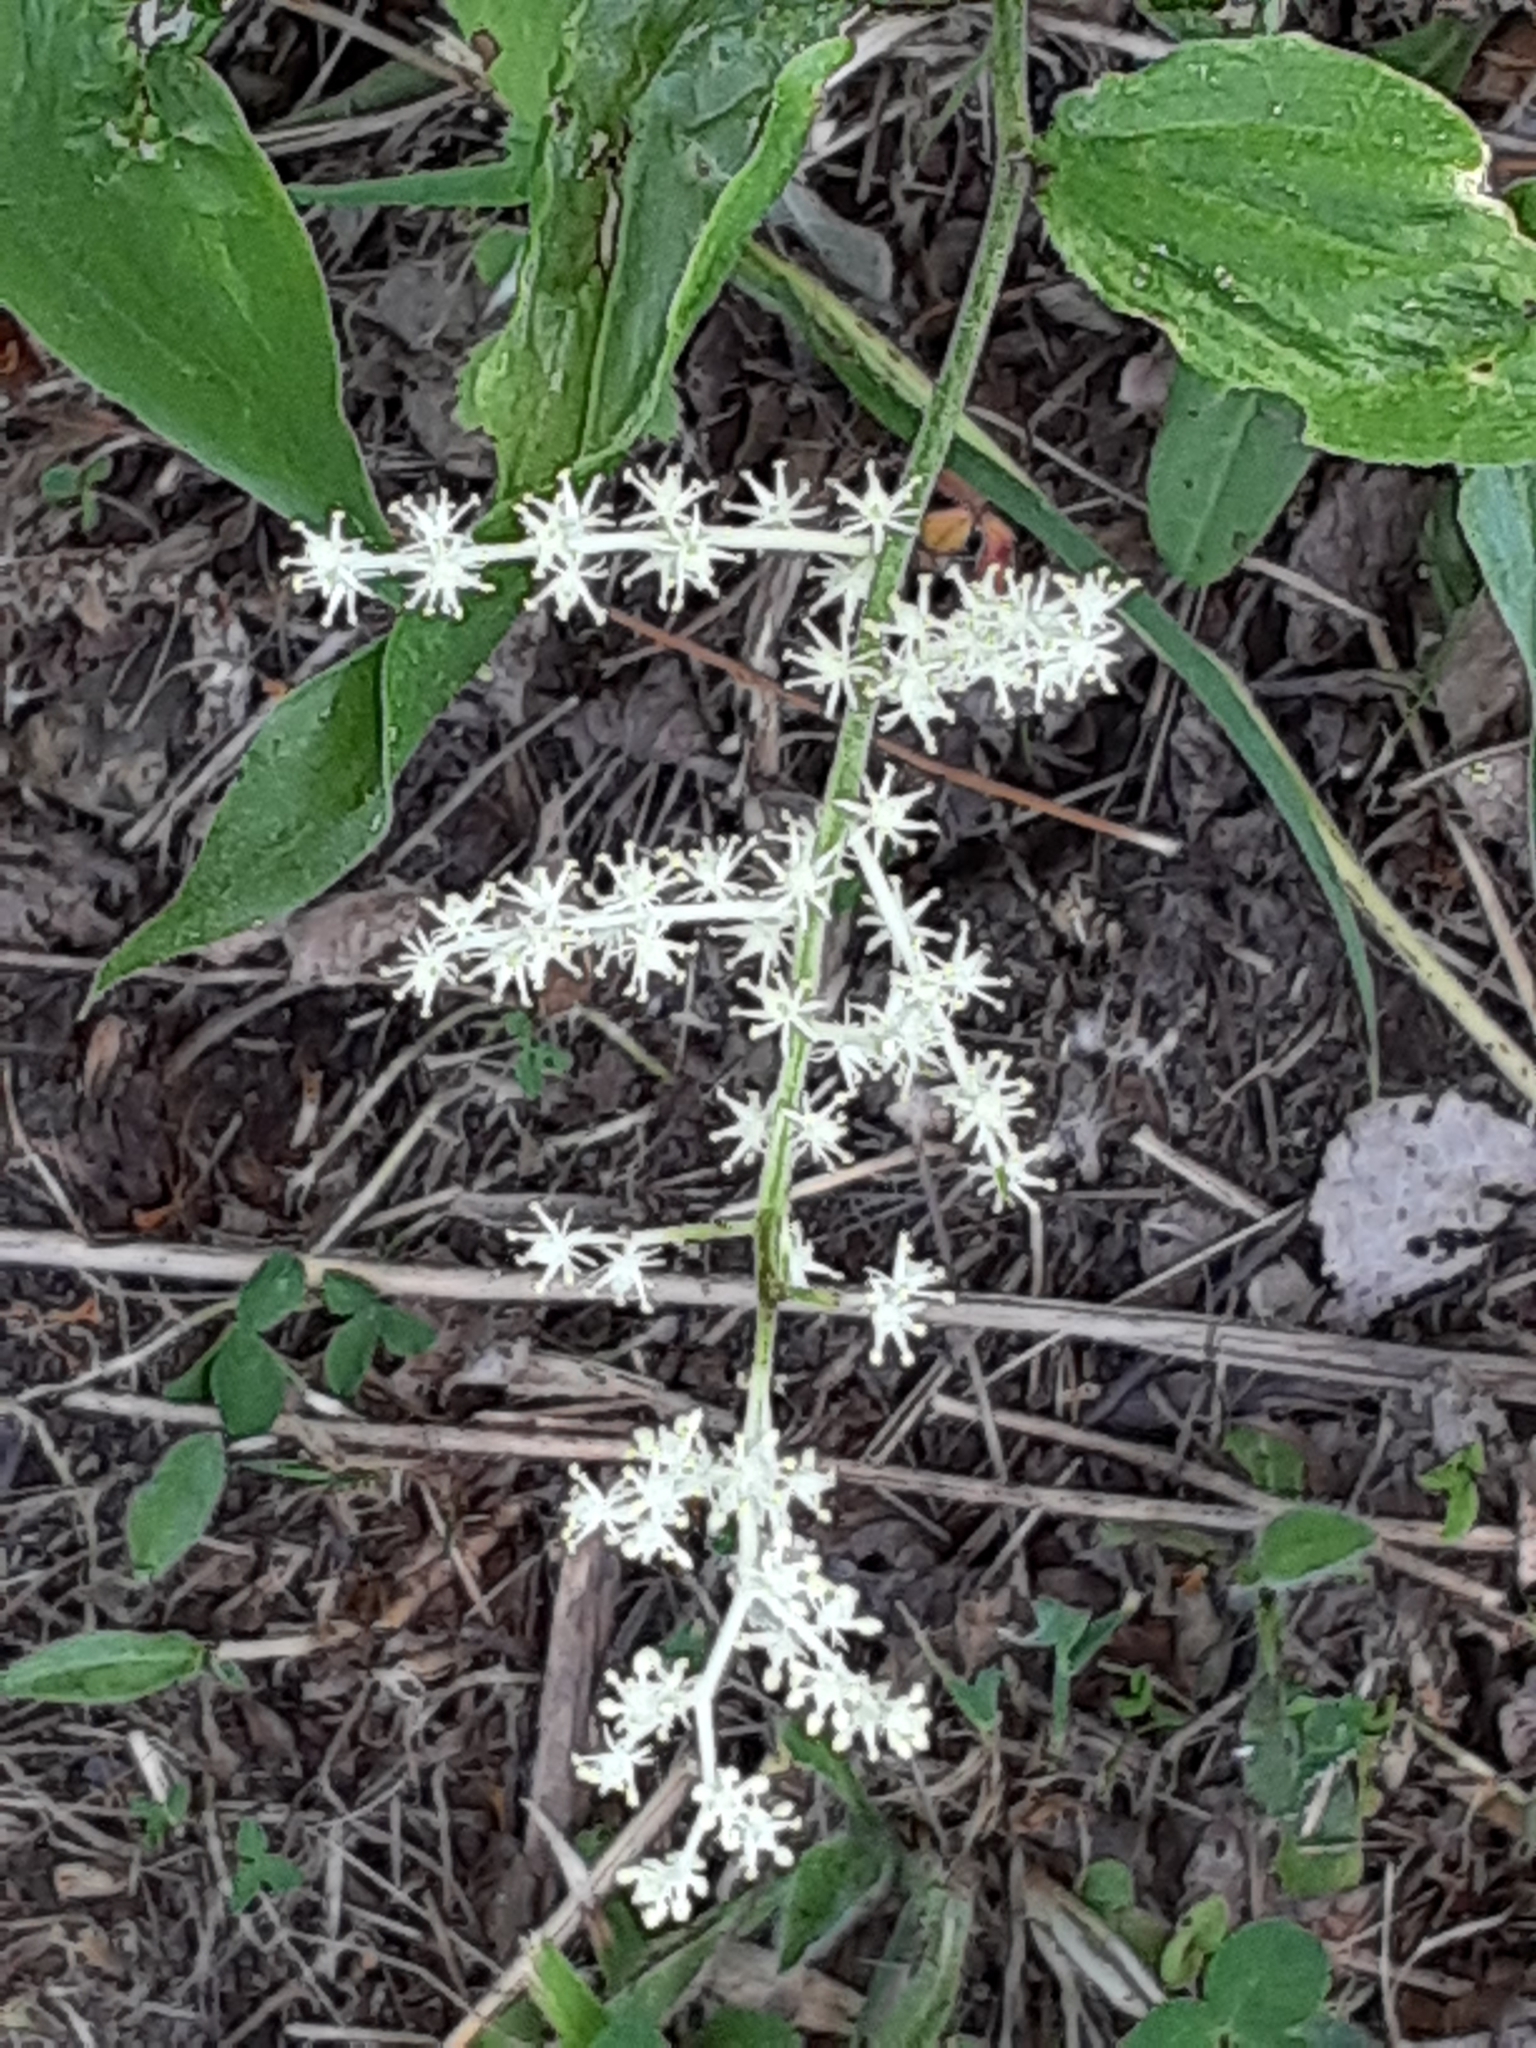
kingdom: Plantae
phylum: Tracheophyta
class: Liliopsida
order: Asparagales
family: Asparagaceae
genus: Maianthemum
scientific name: Maianthemum racemosum
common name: False spikenard
